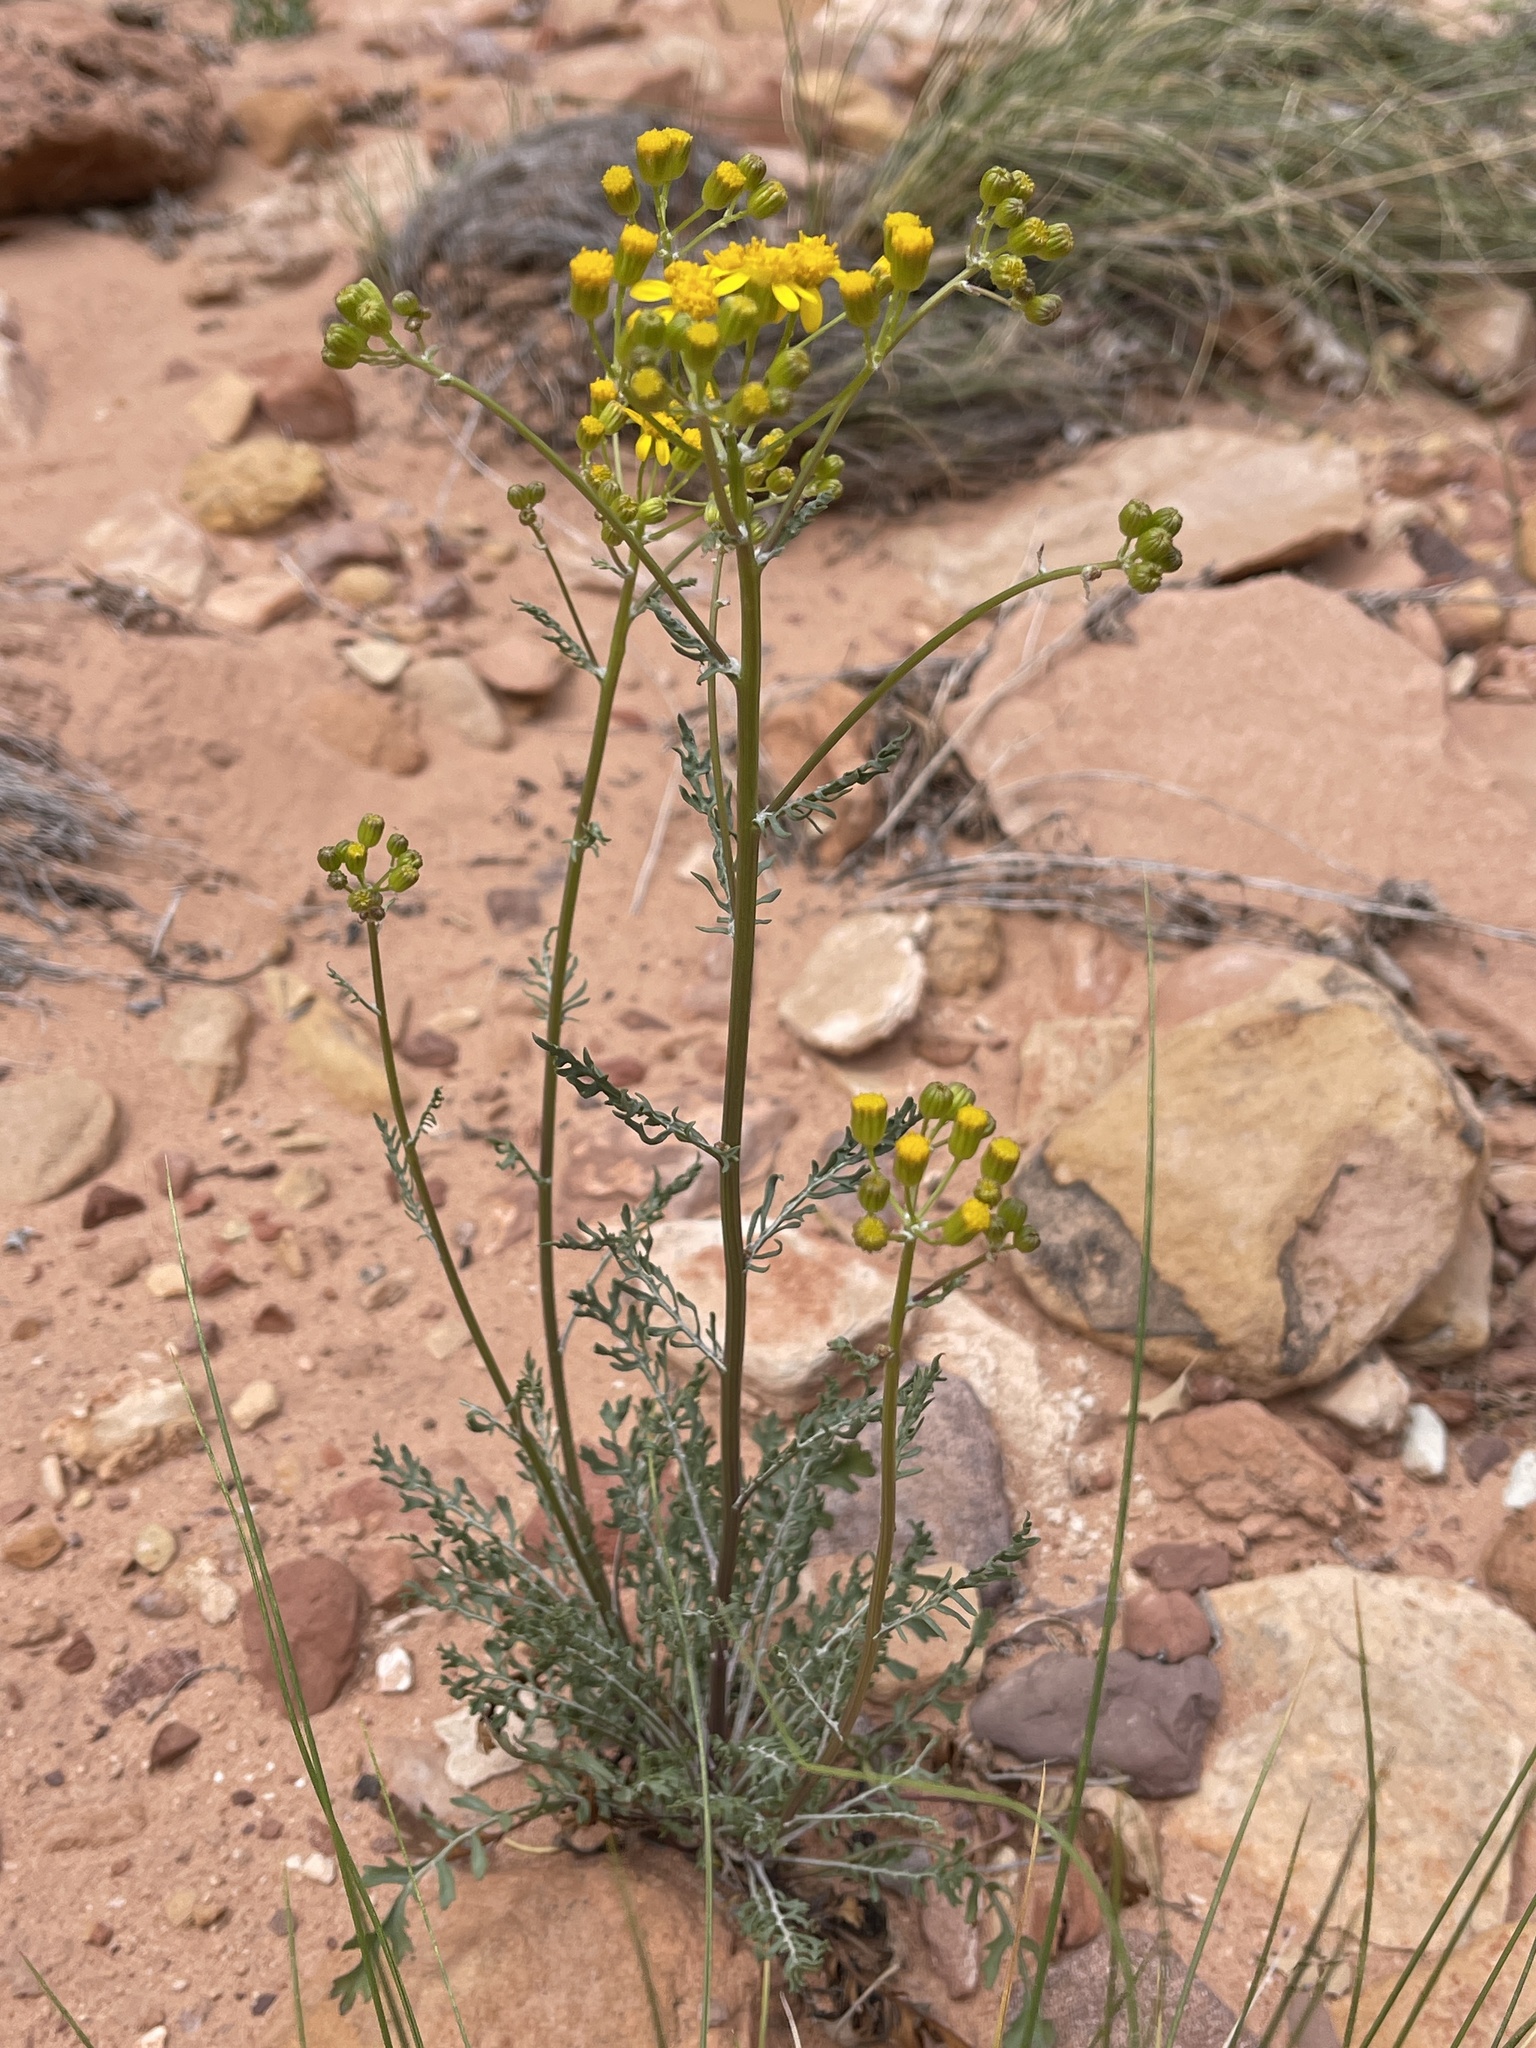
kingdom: Plantae
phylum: Tracheophyta
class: Magnoliopsida
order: Asterales
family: Asteraceae
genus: Packera
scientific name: Packera multilobata
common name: Lobe-leaf groundsel
